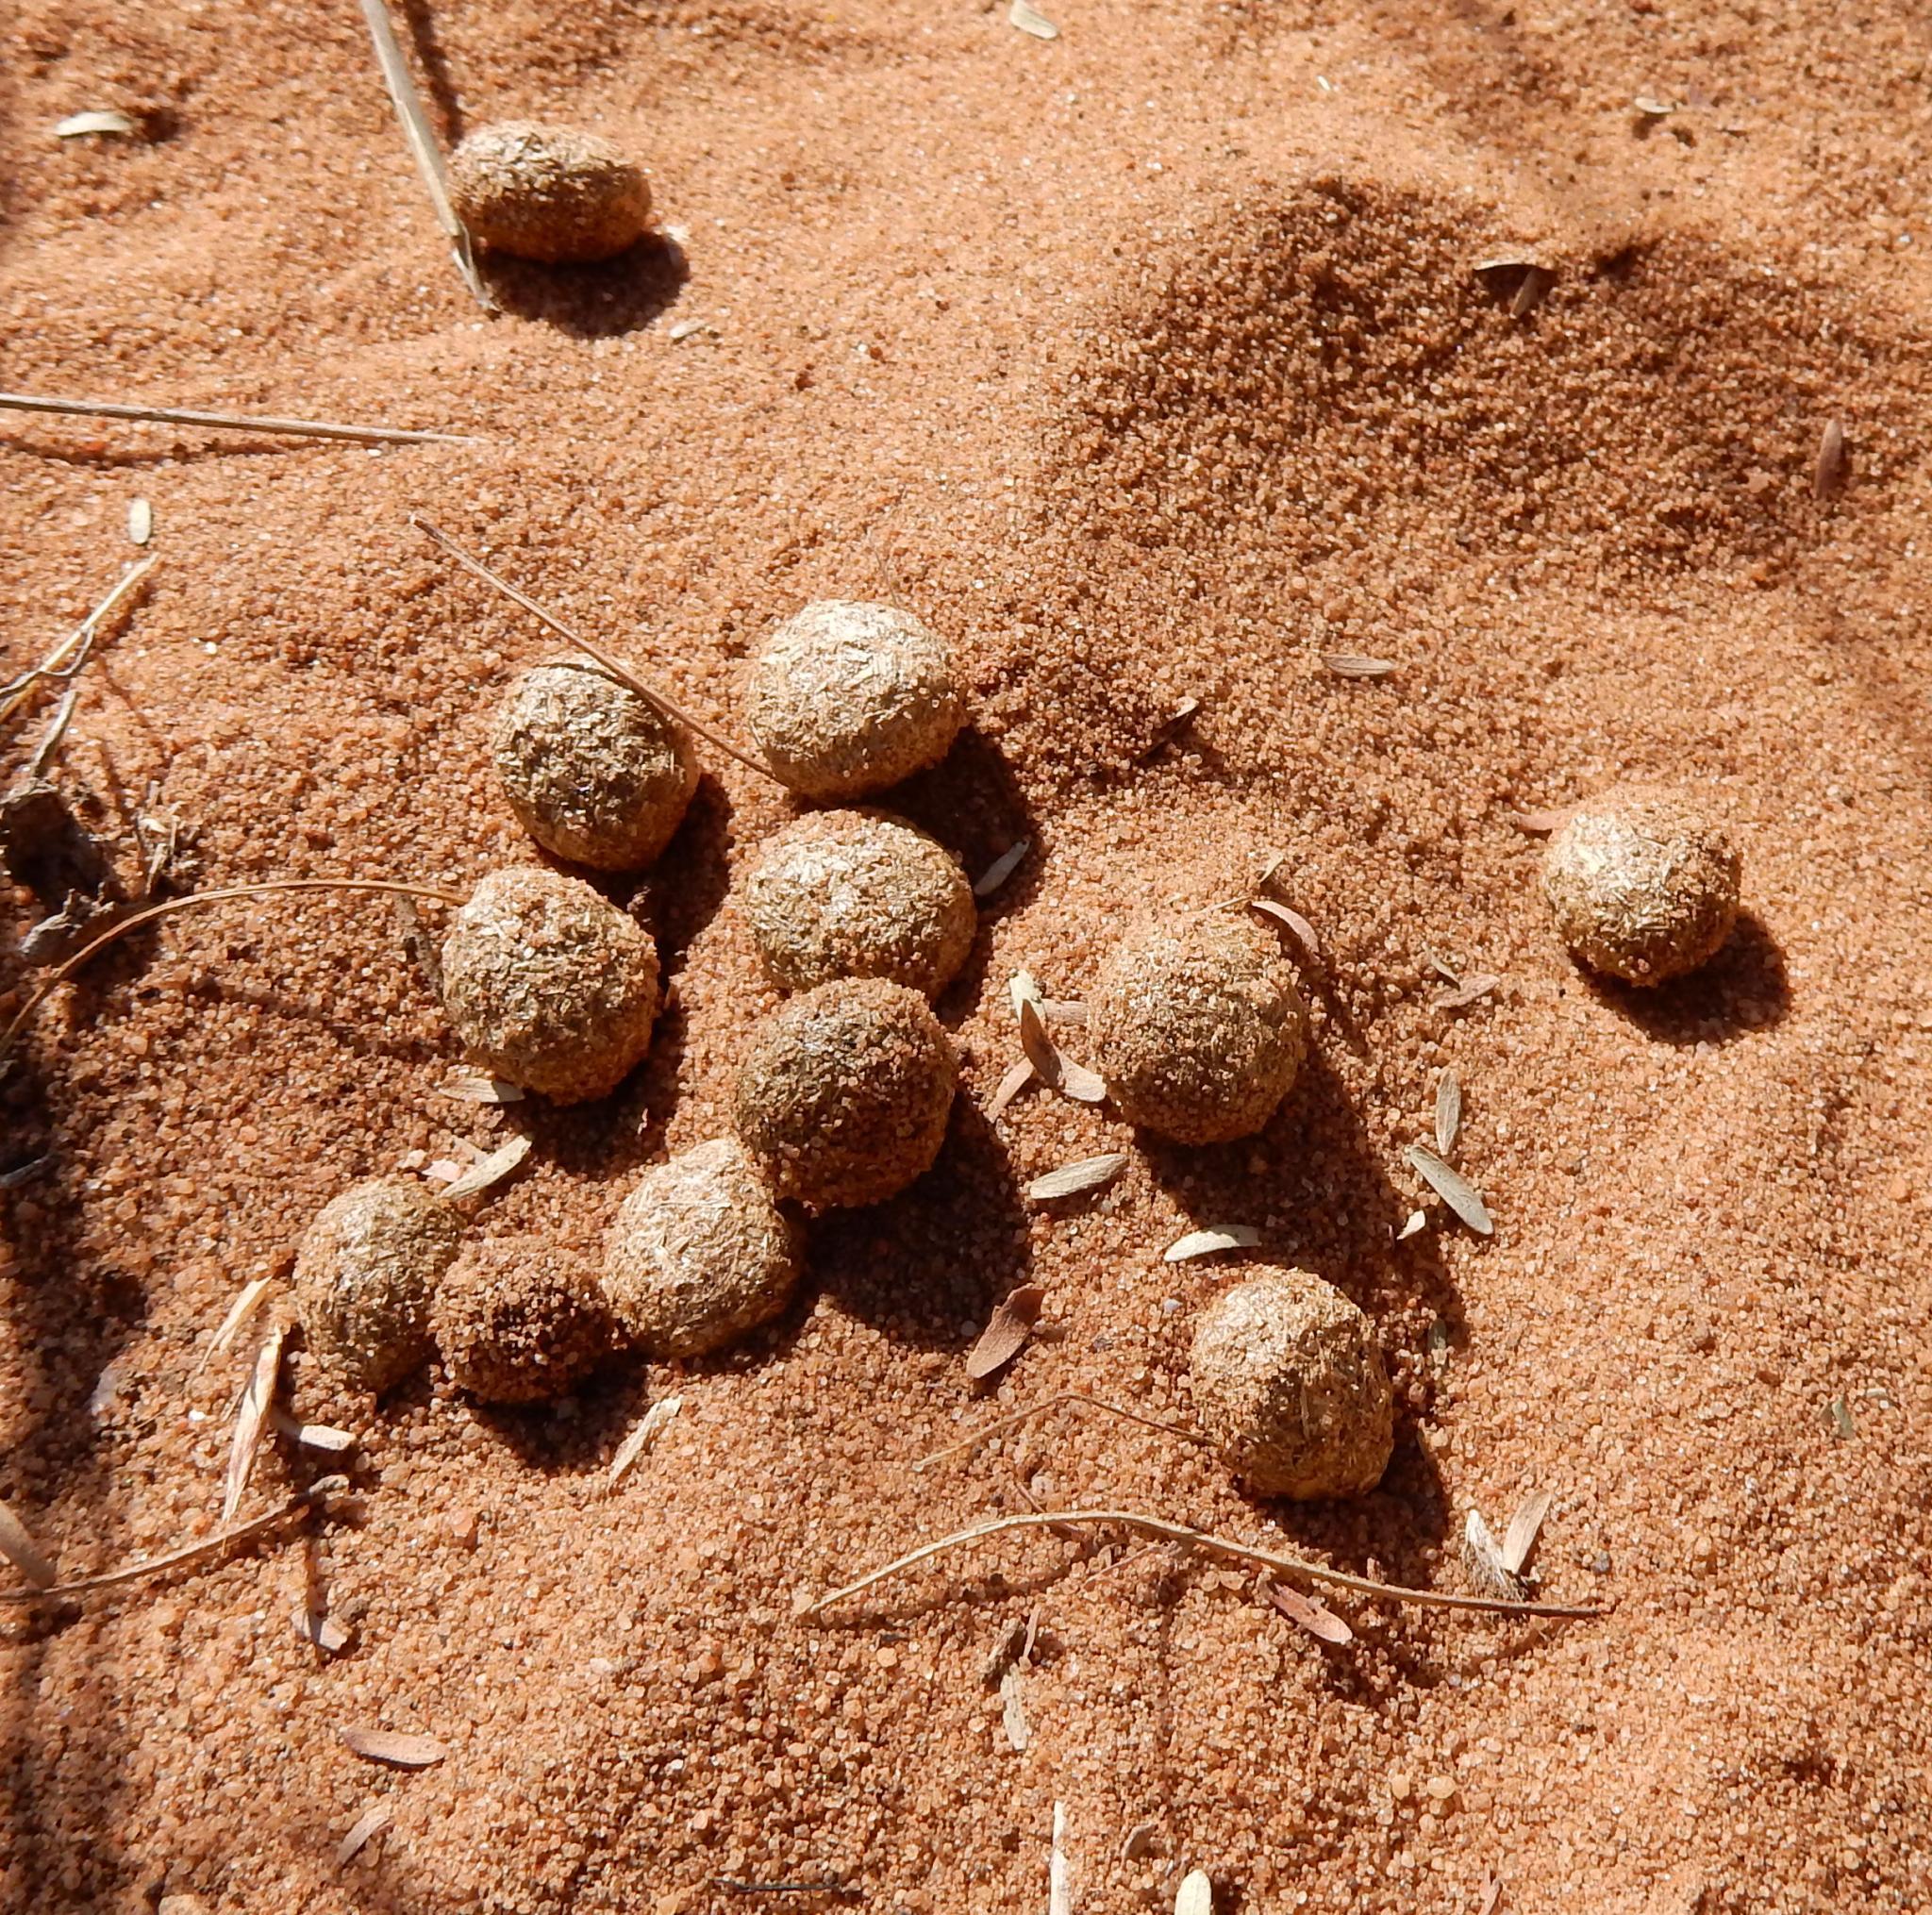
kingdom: Animalia
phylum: Chordata
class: Mammalia
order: Lagomorpha
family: Leporidae
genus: Lepus
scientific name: Lepus saxatilis
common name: Scrub hare
